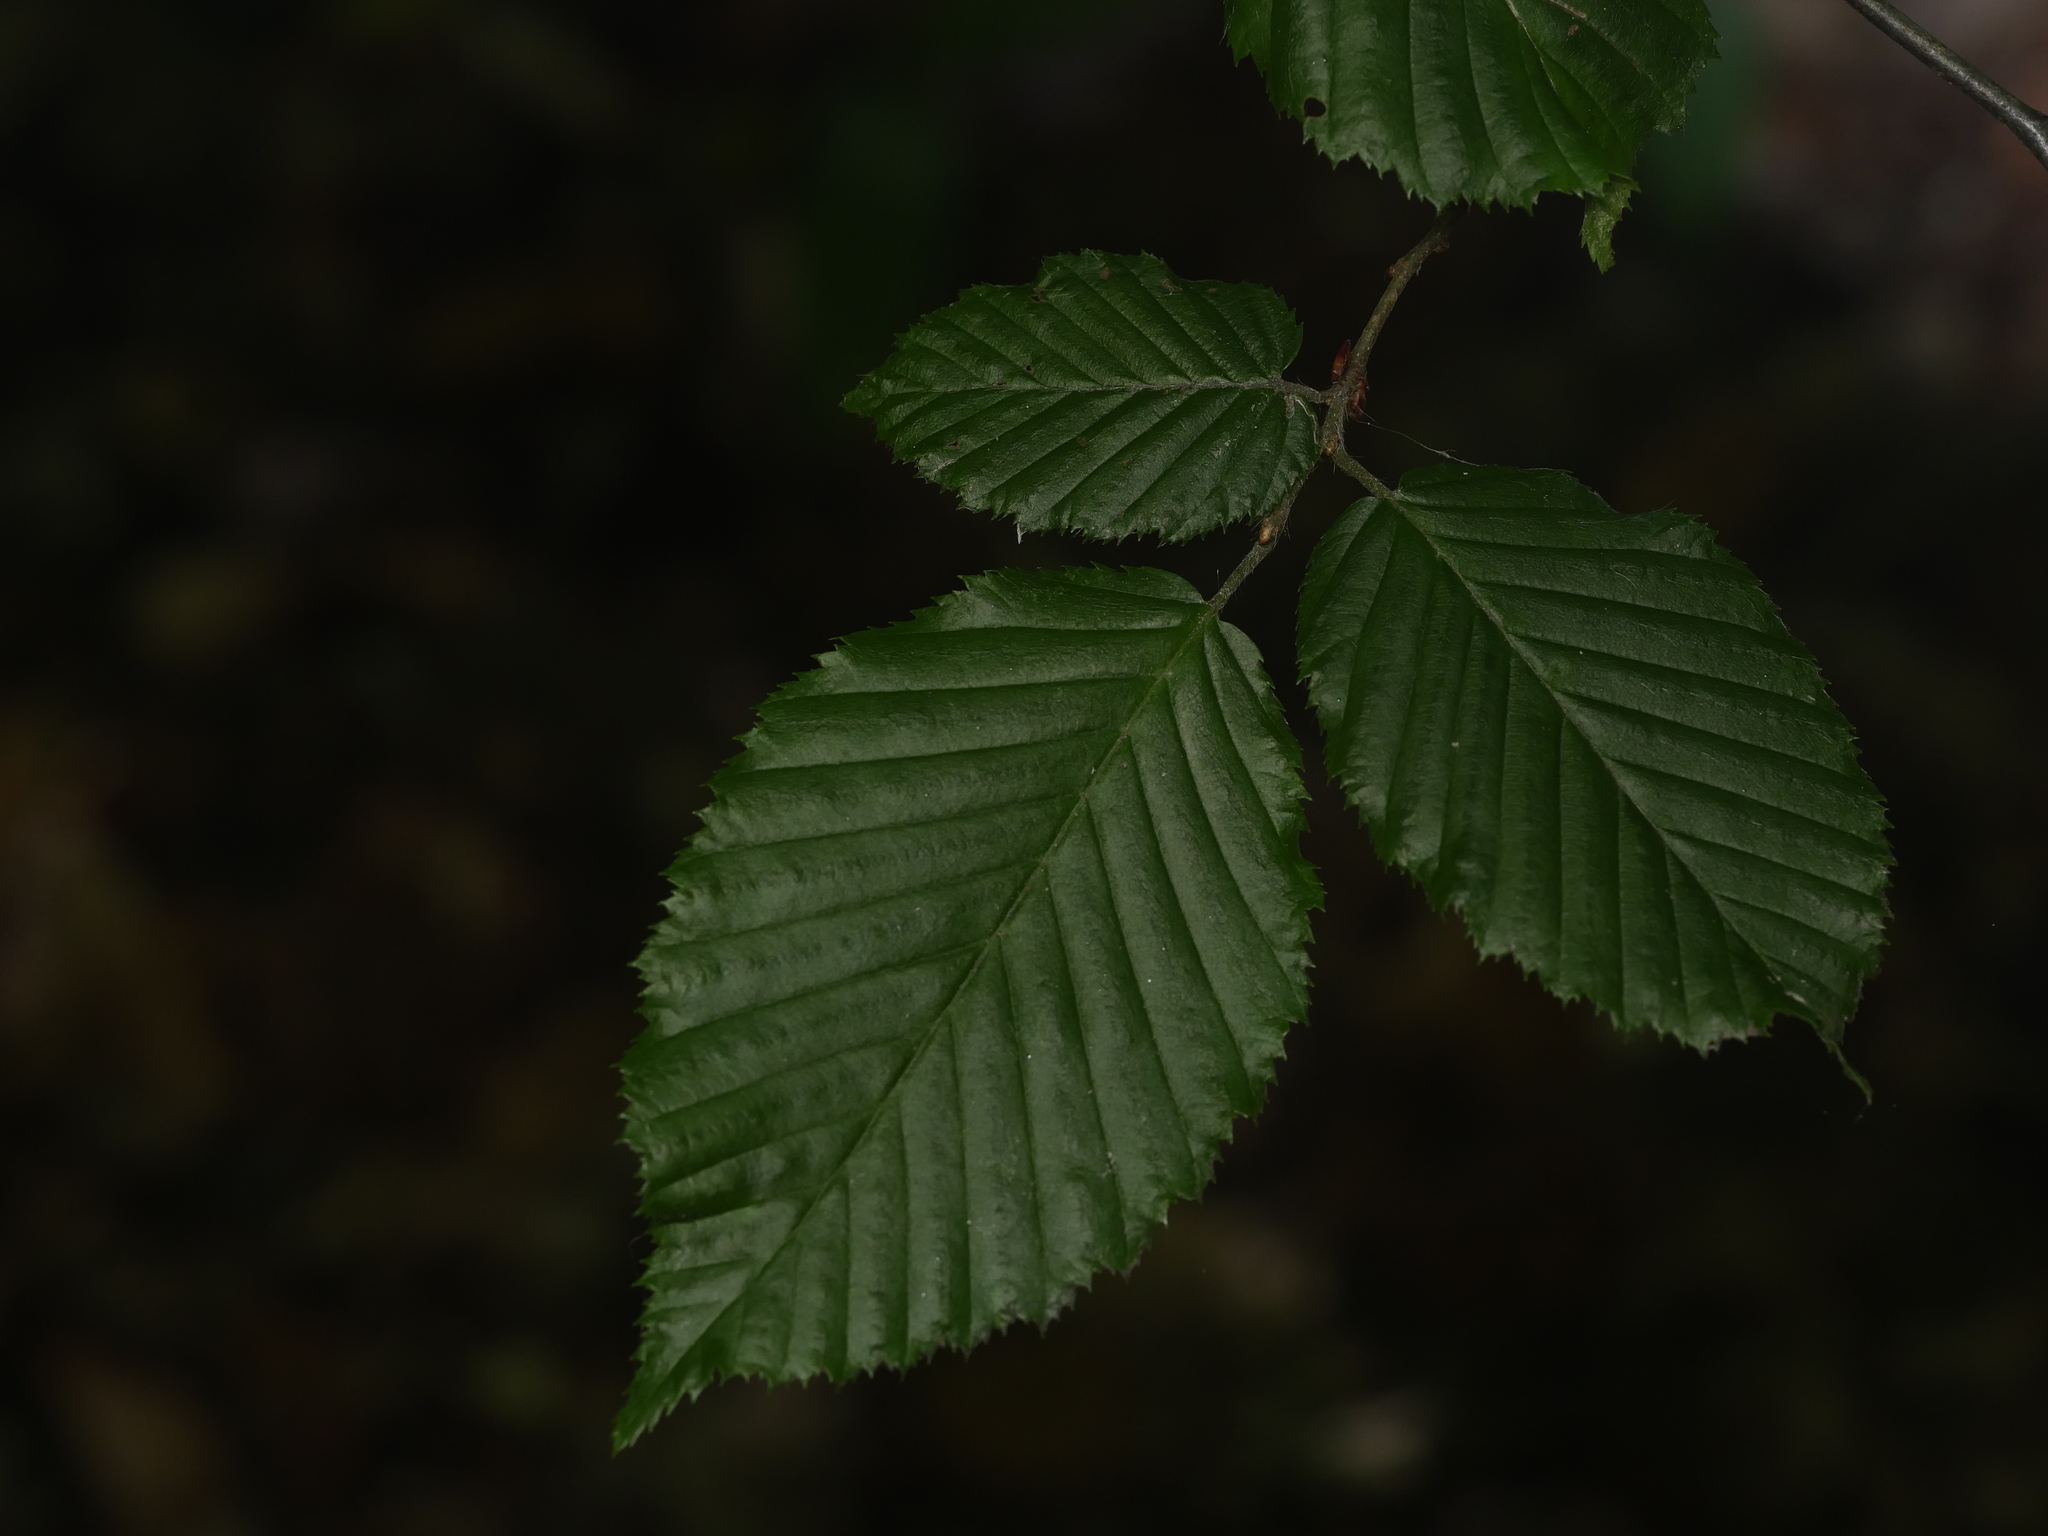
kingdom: Plantae
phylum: Tracheophyta
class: Magnoliopsida
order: Fagales
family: Betulaceae
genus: Carpinus
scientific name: Carpinus betulus
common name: Hornbeam
